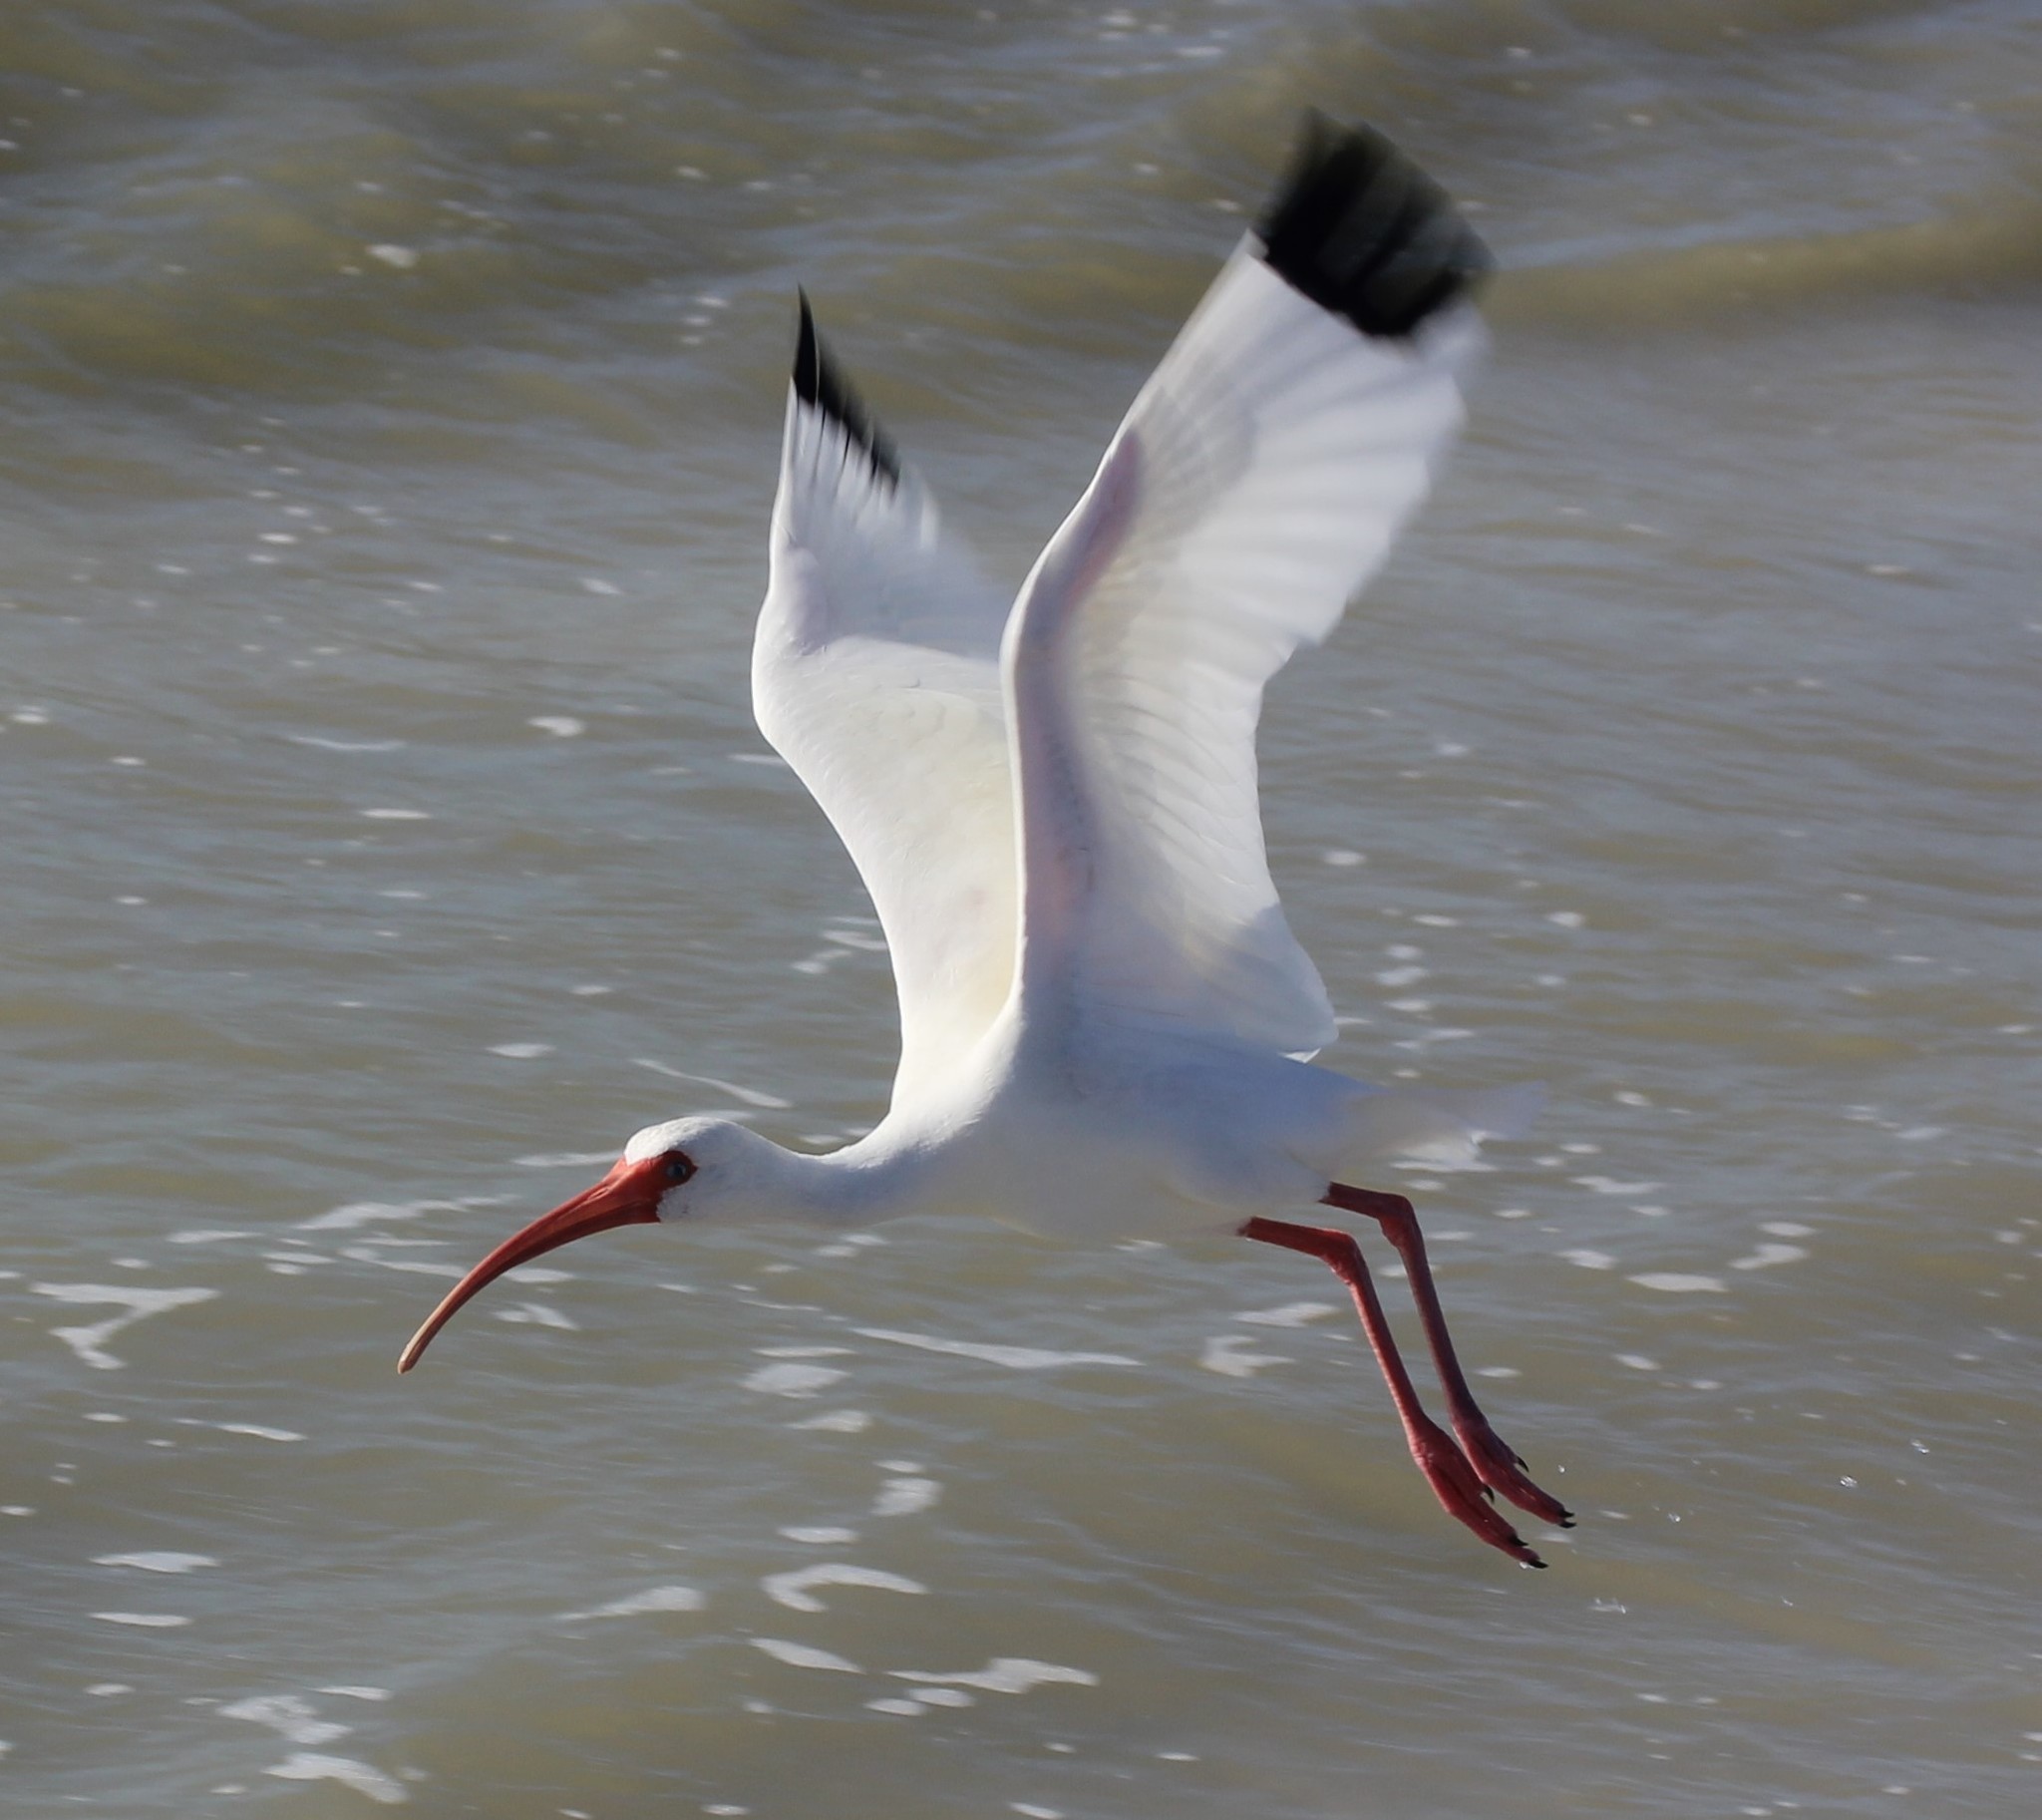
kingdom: Animalia
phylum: Chordata
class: Aves
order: Pelecaniformes
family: Threskiornithidae
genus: Eudocimus
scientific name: Eudocimus albus
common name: White ibis
